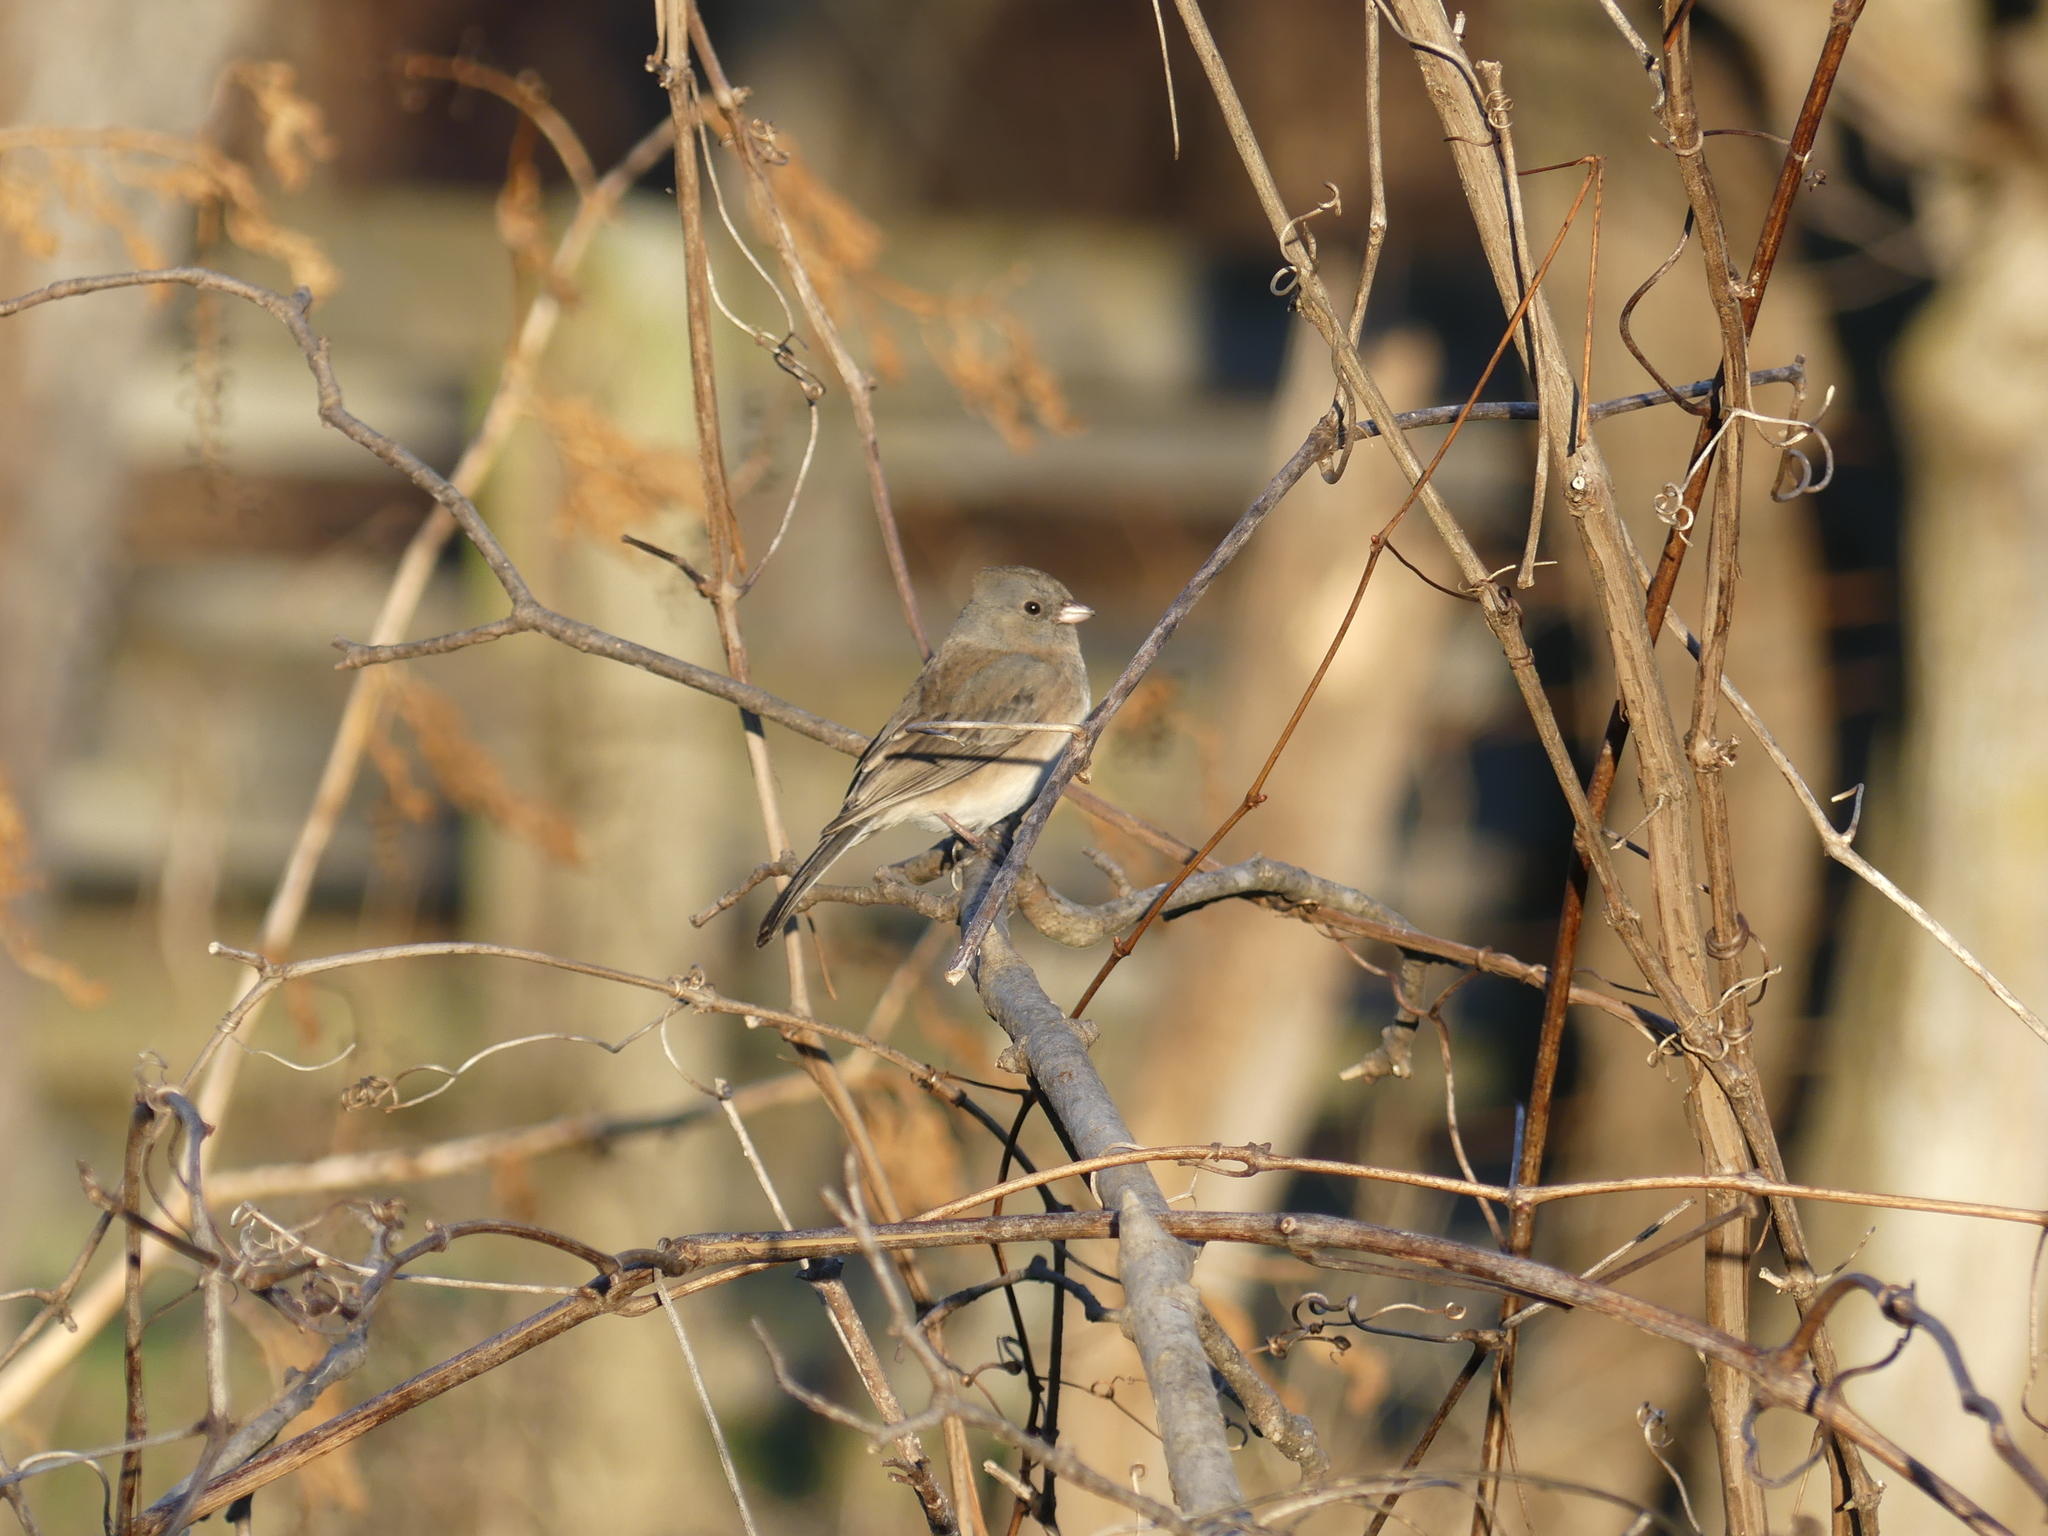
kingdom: Animalia
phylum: Chordata
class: Aves
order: Passeriformes
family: Passerellidae
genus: Junco
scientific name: Junco hyemalis
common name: Dark-eyed junco
